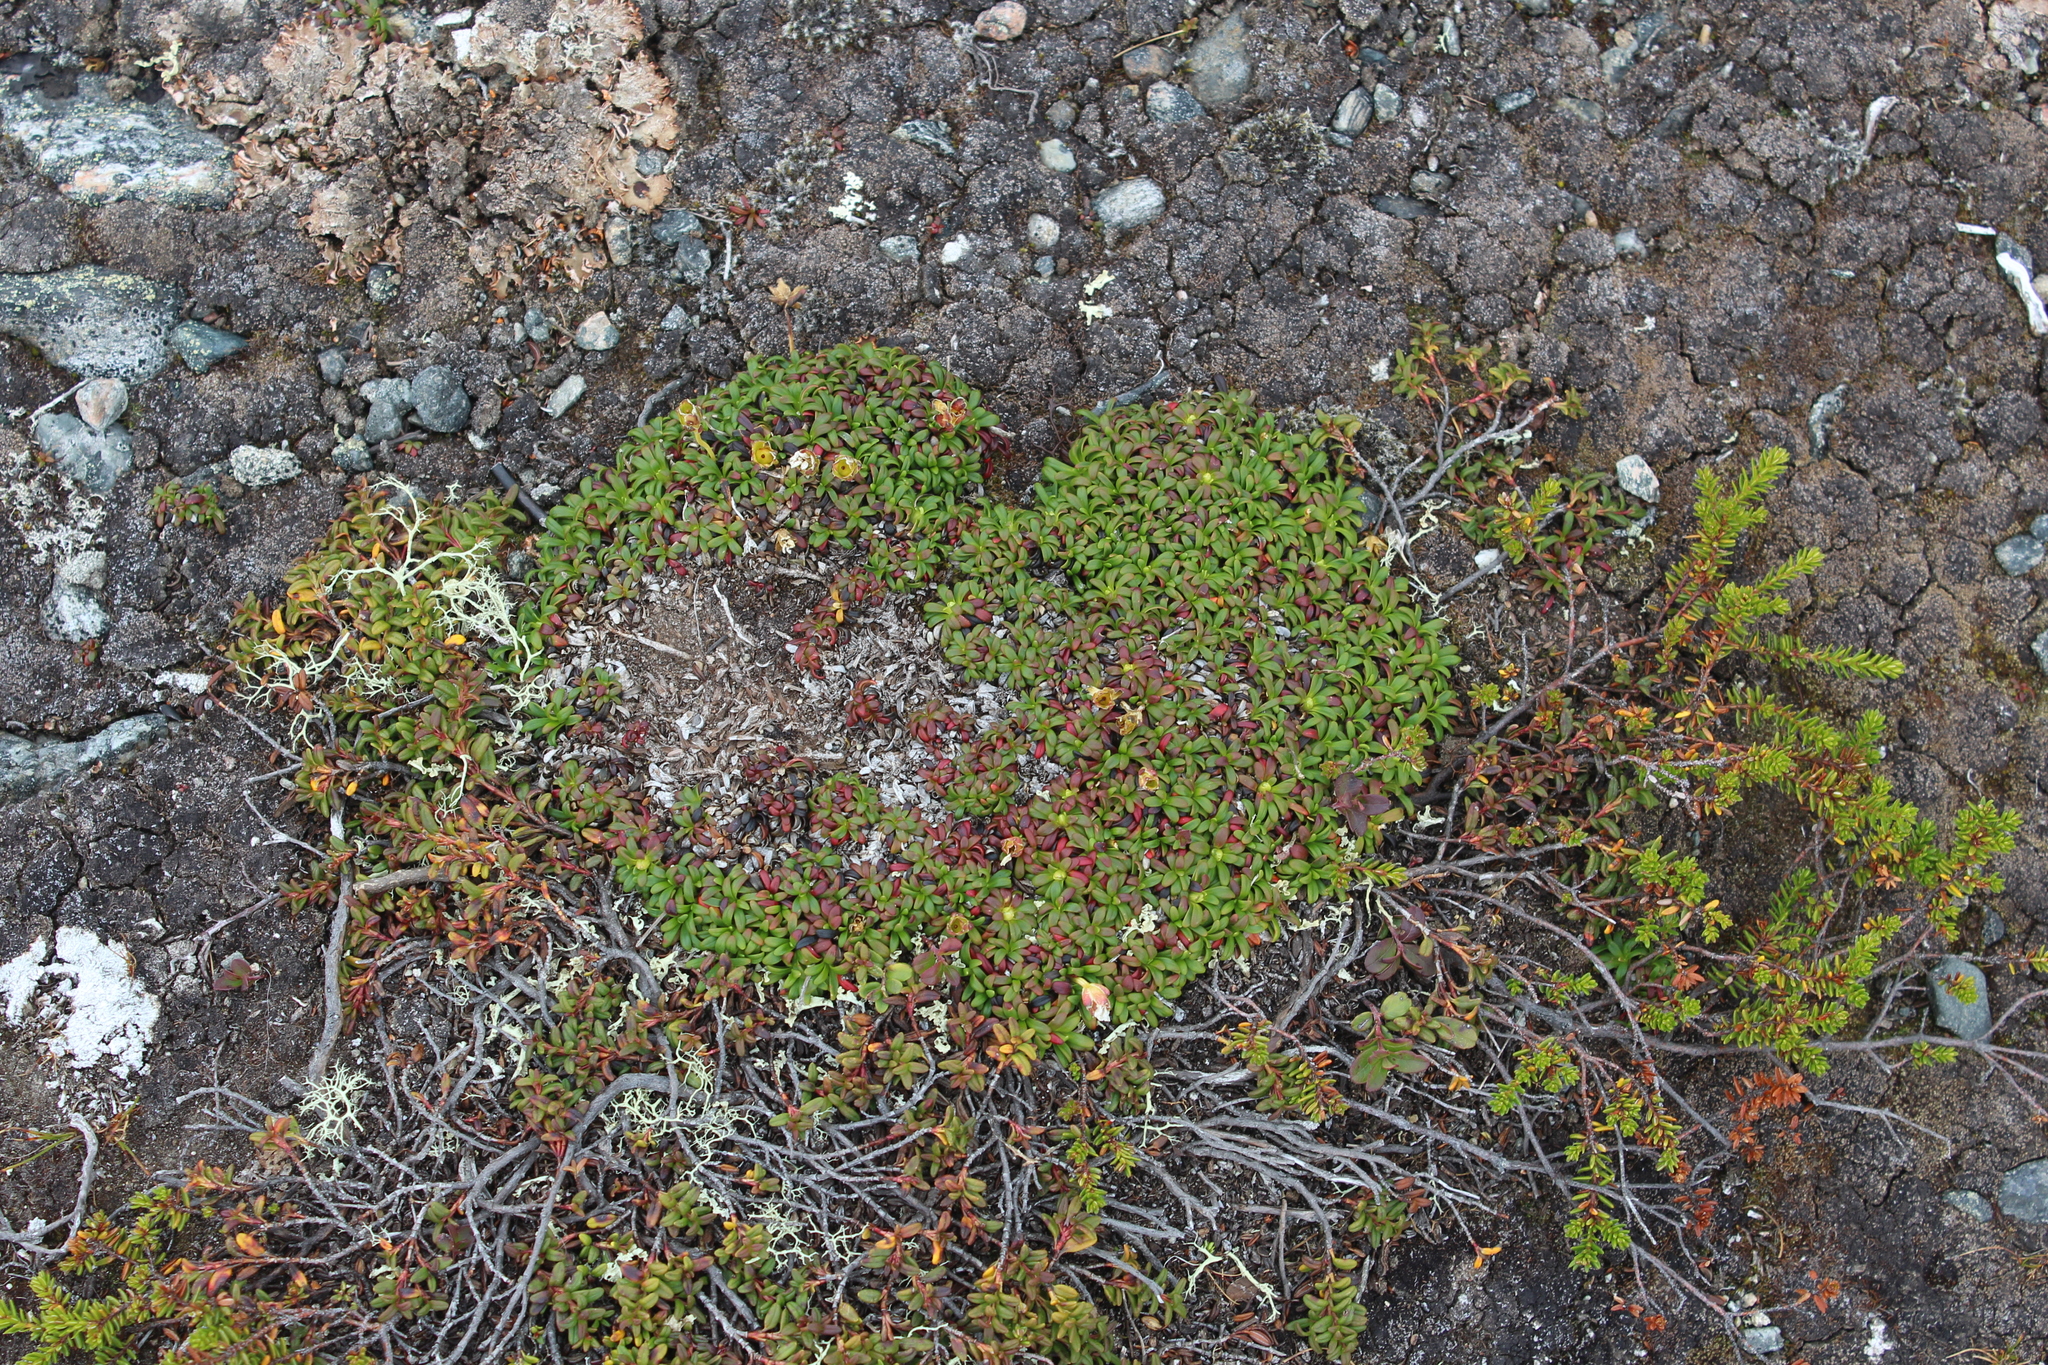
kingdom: Plantae
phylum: Tracheophyta
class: Magnoliopsida
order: Ericales
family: Diapensiaceae
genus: Diapensia
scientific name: Diapensia lapponica
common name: Diapensia
